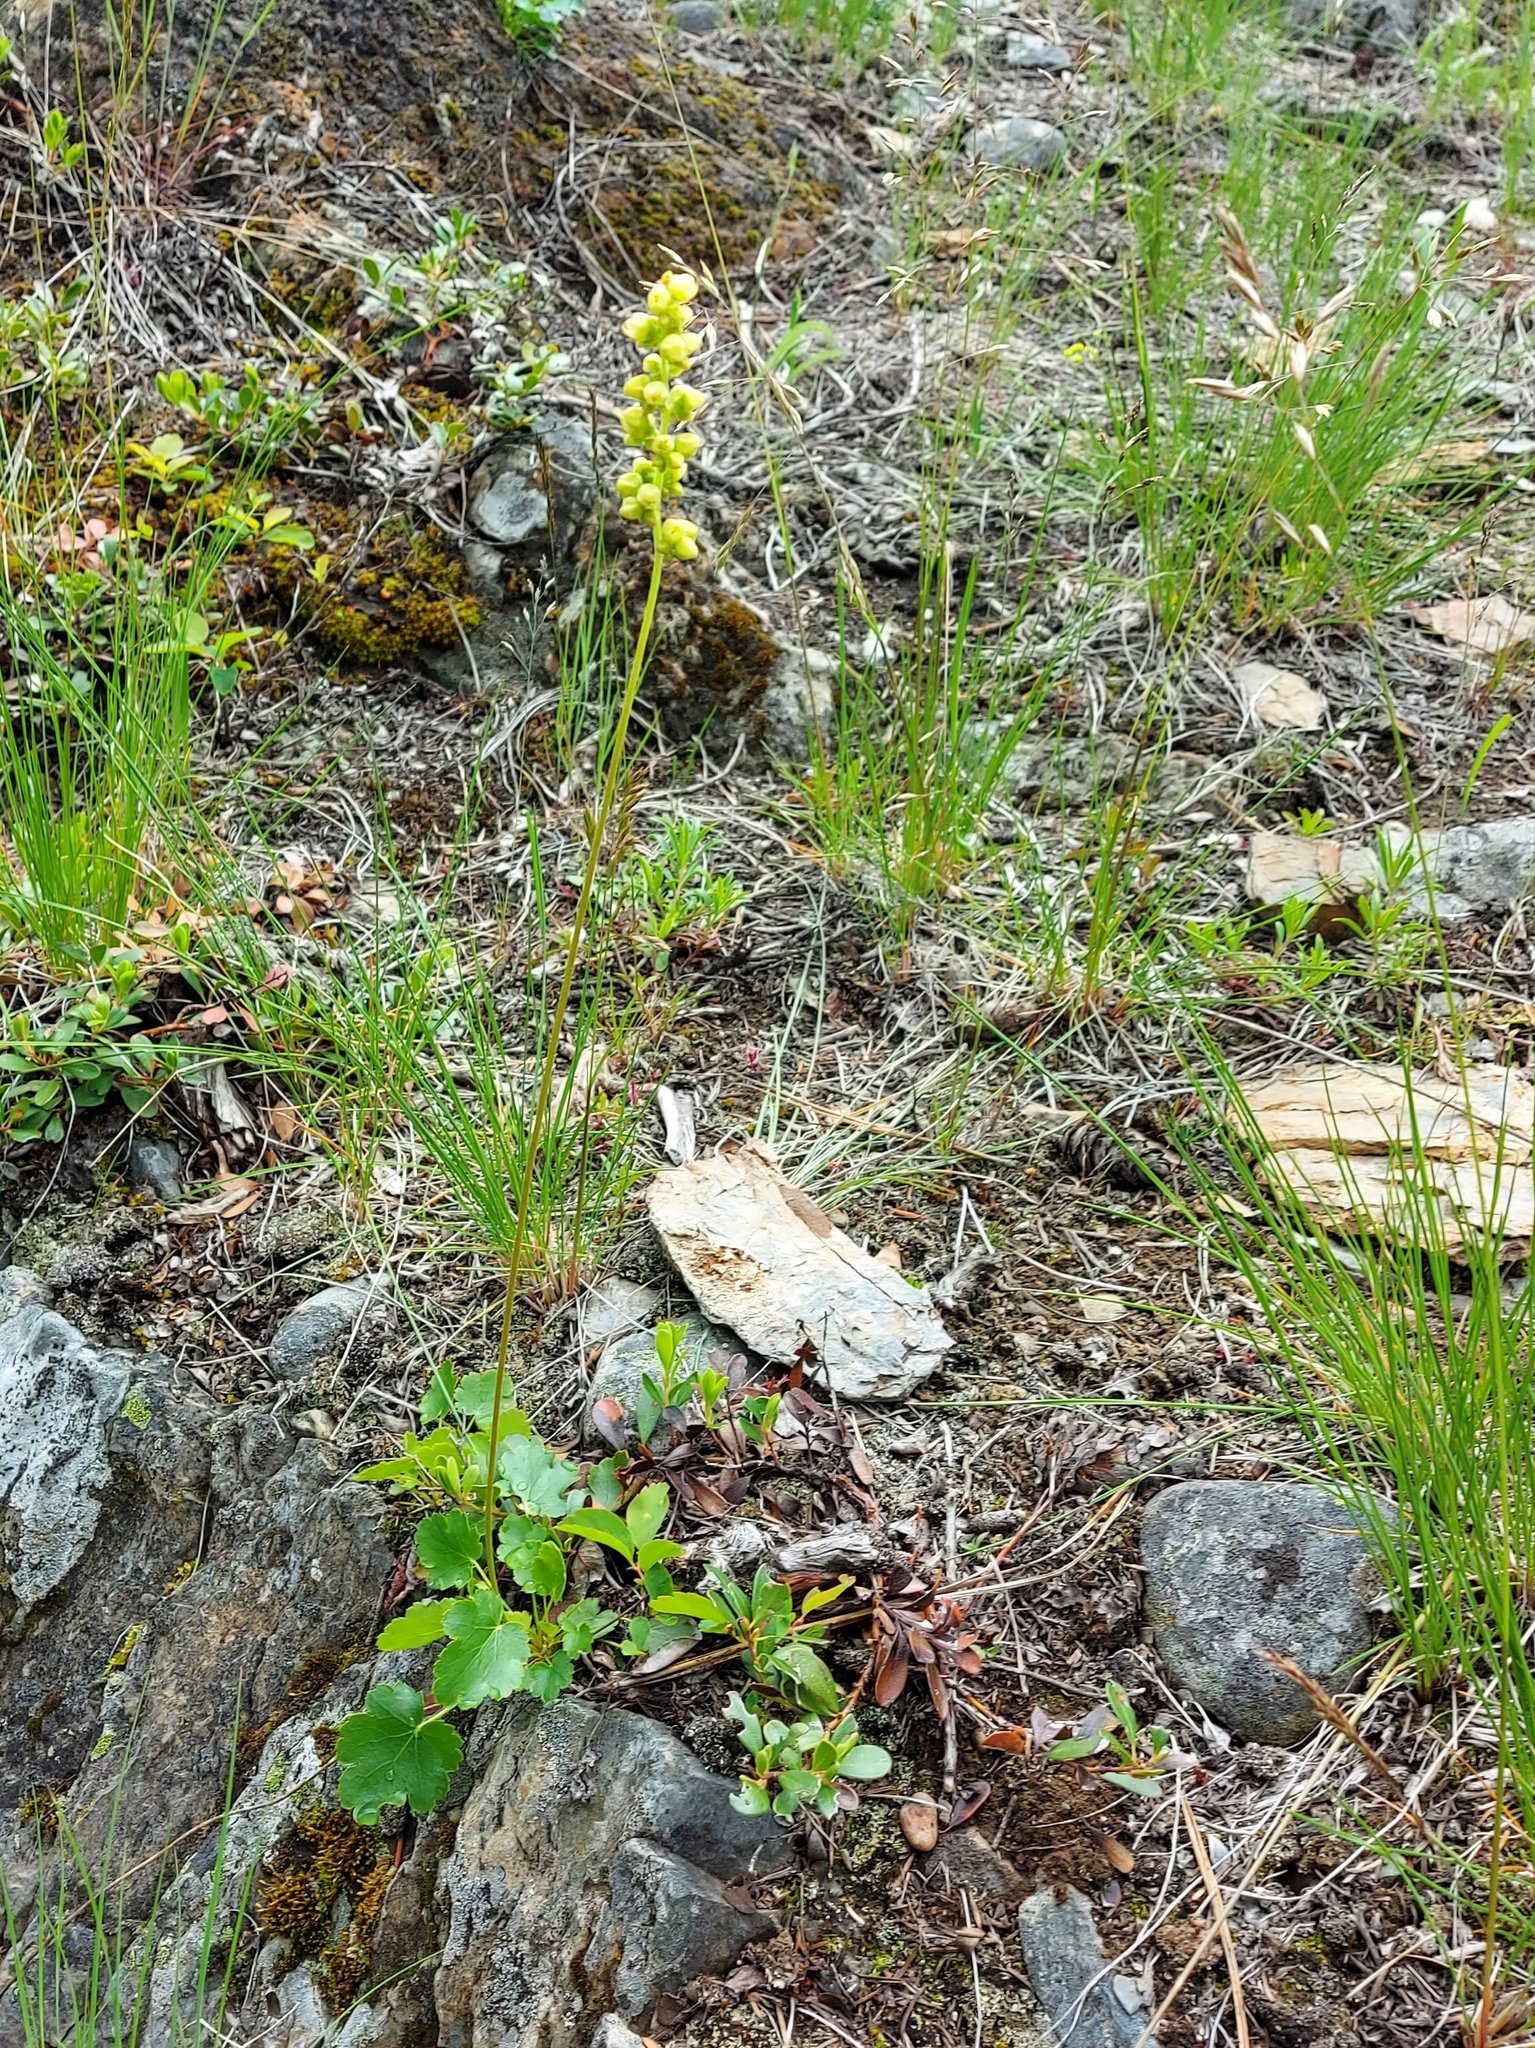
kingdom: Plantae
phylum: Tracheophyta
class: Magnoliopsida
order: Saxifragales
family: Saxifragaceae
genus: Heuchera
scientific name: Heuchera cylindrica
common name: Mat alumroot
